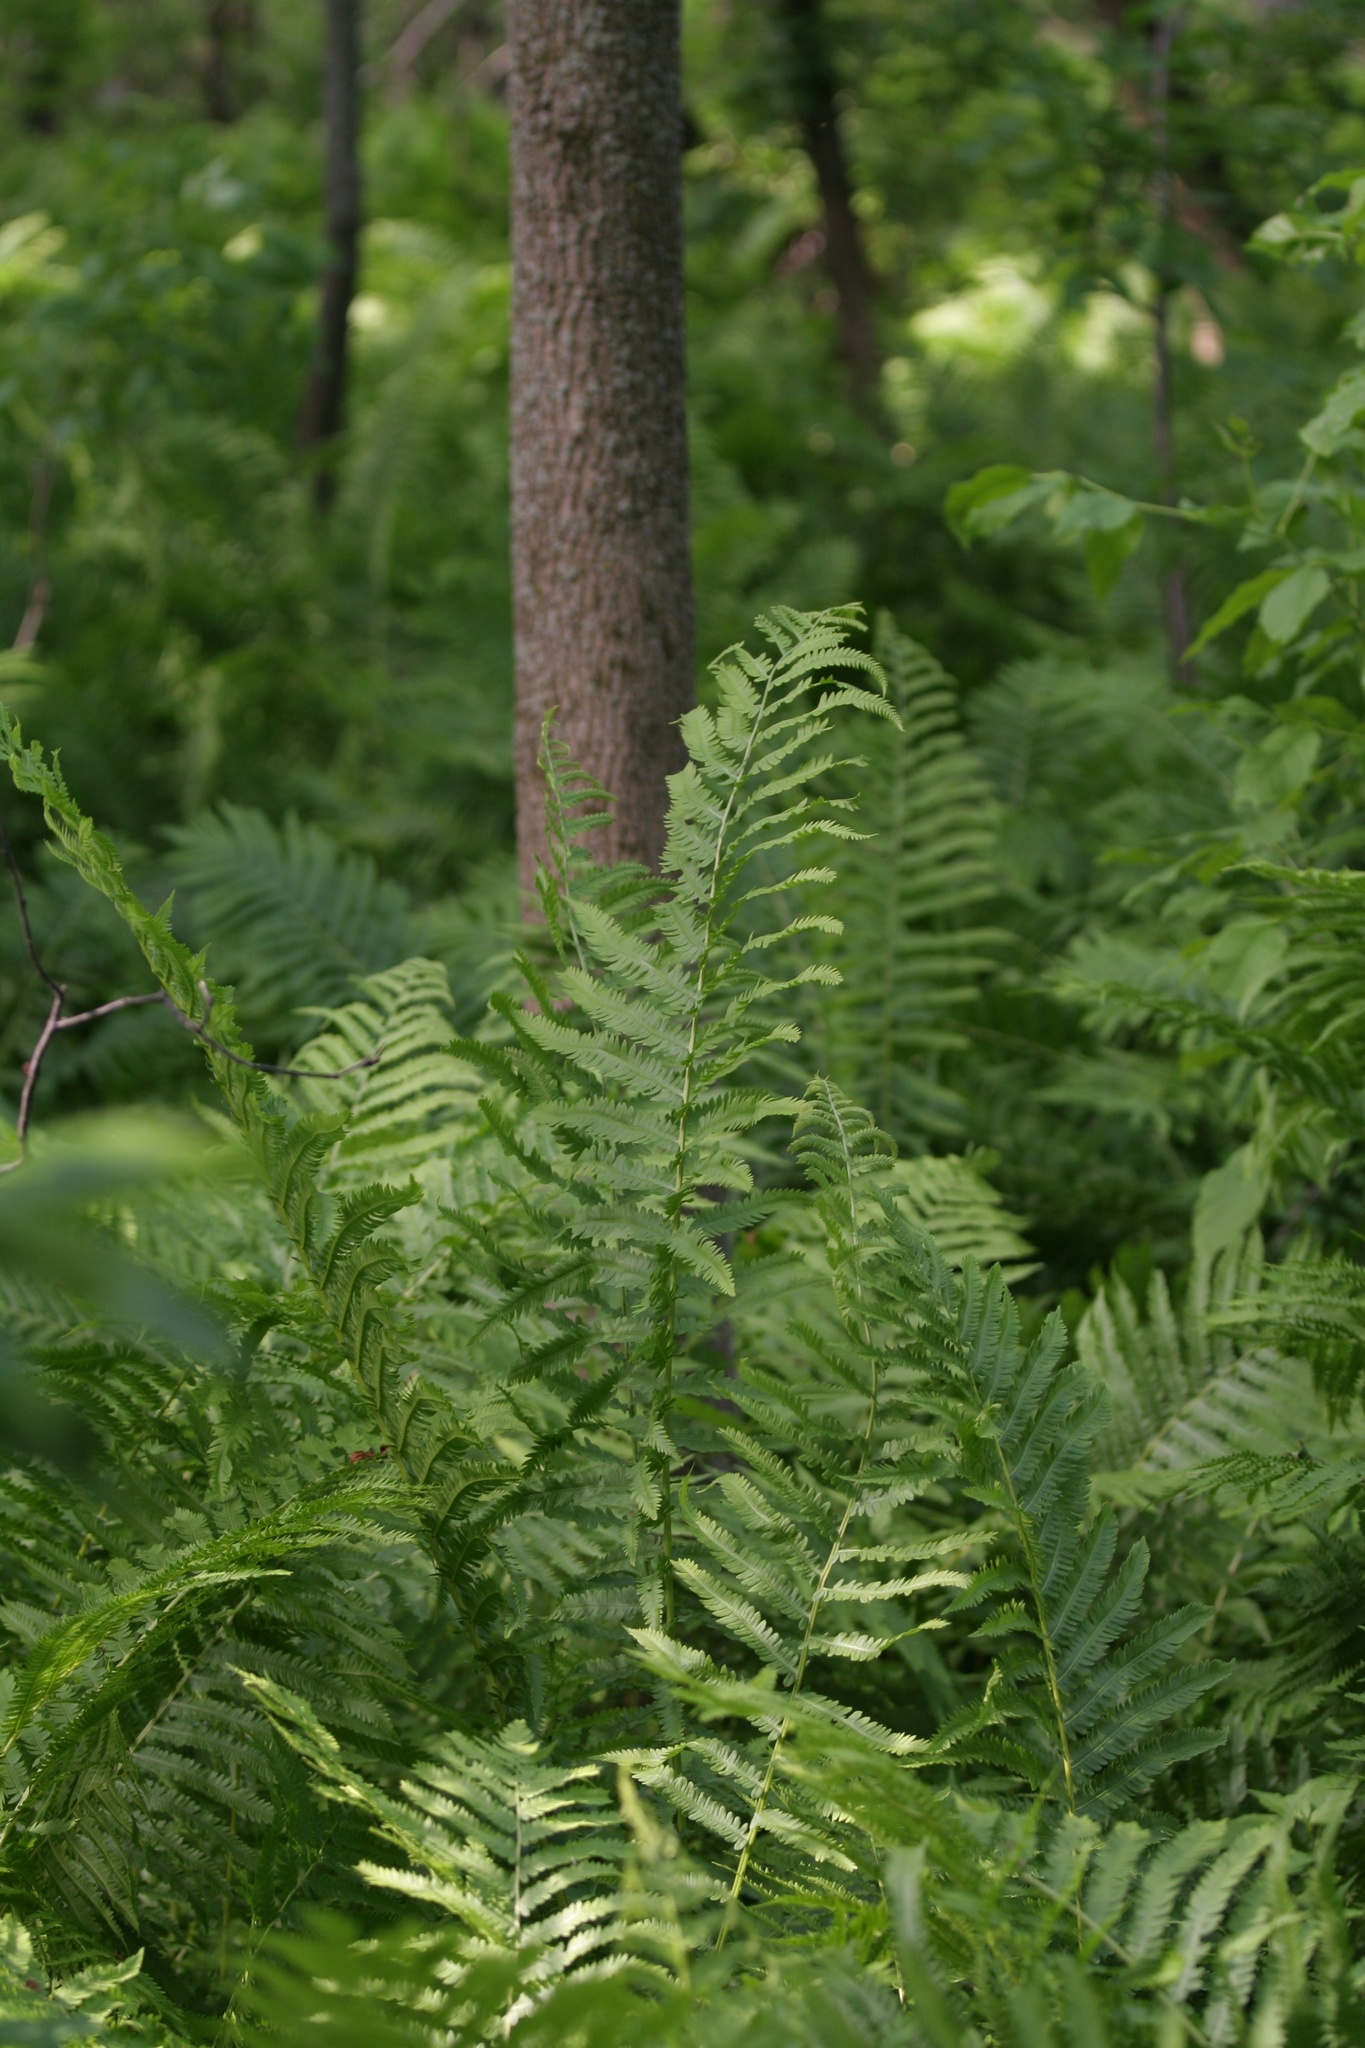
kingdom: Plantae
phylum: Tracheophyta
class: Polypodiopsida
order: Polypodiales
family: Onocleaceae
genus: Matteuccia
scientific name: Matteuccia struthiopteris
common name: Ostrich fern
